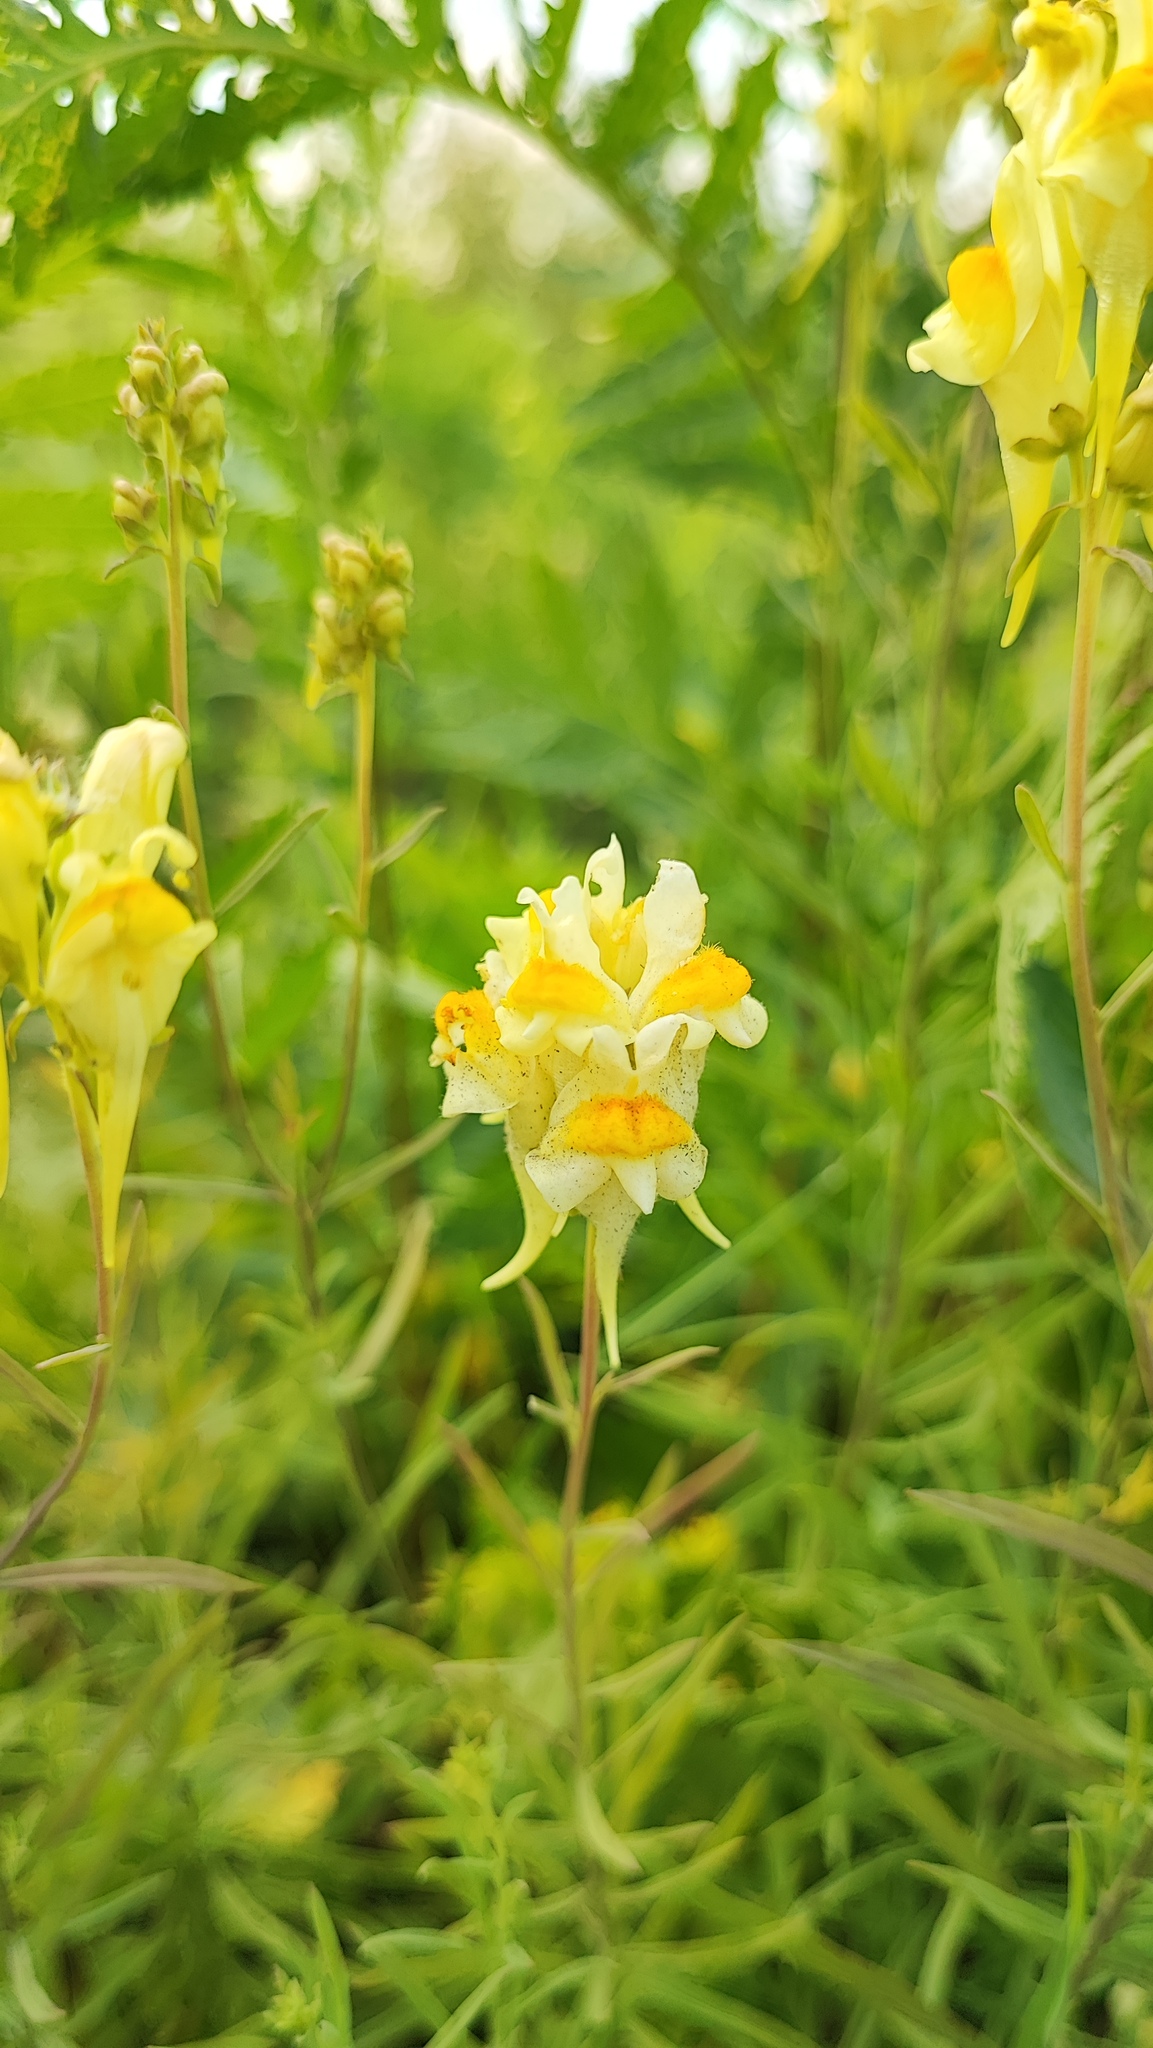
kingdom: Plantae
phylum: Tracheophyta
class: Magnoliopsida
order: Lamiales
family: Plantaginaceae
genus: Linaria
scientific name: Linaria vulgaris
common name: Butter and eggs
